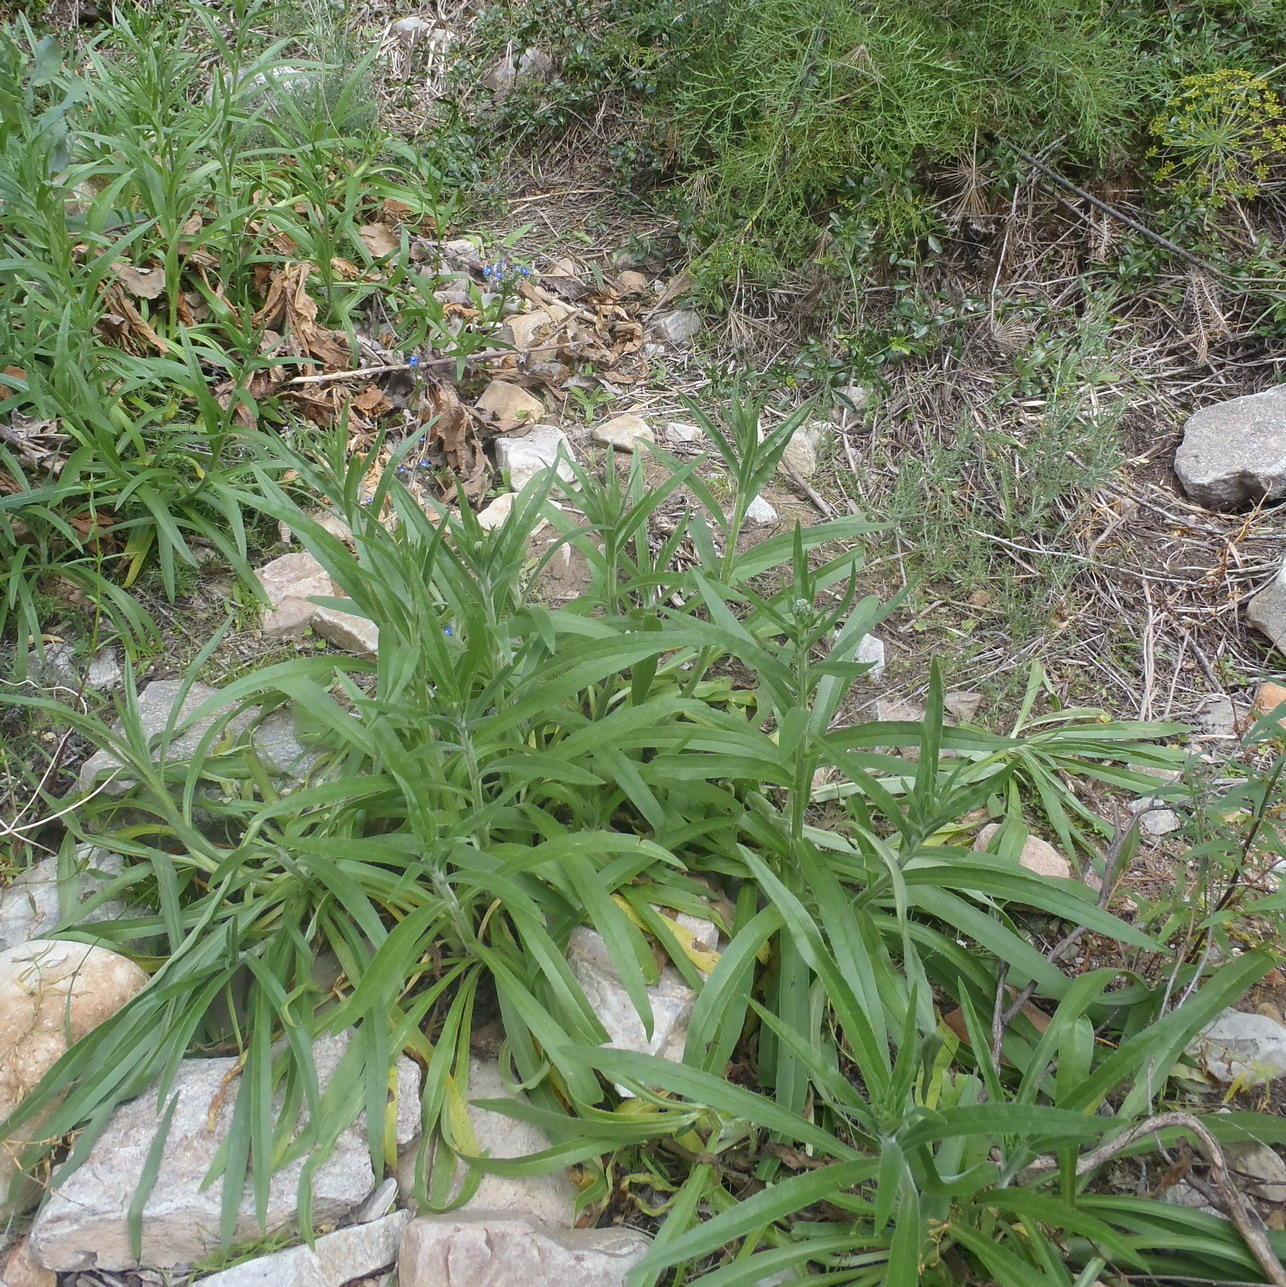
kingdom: Plantae
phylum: Tracheophyta
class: Magnoliopsida
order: Boraginales
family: Boraginaceae
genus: Anchusa
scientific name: Anchusa capensis
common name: Cape bugloss
